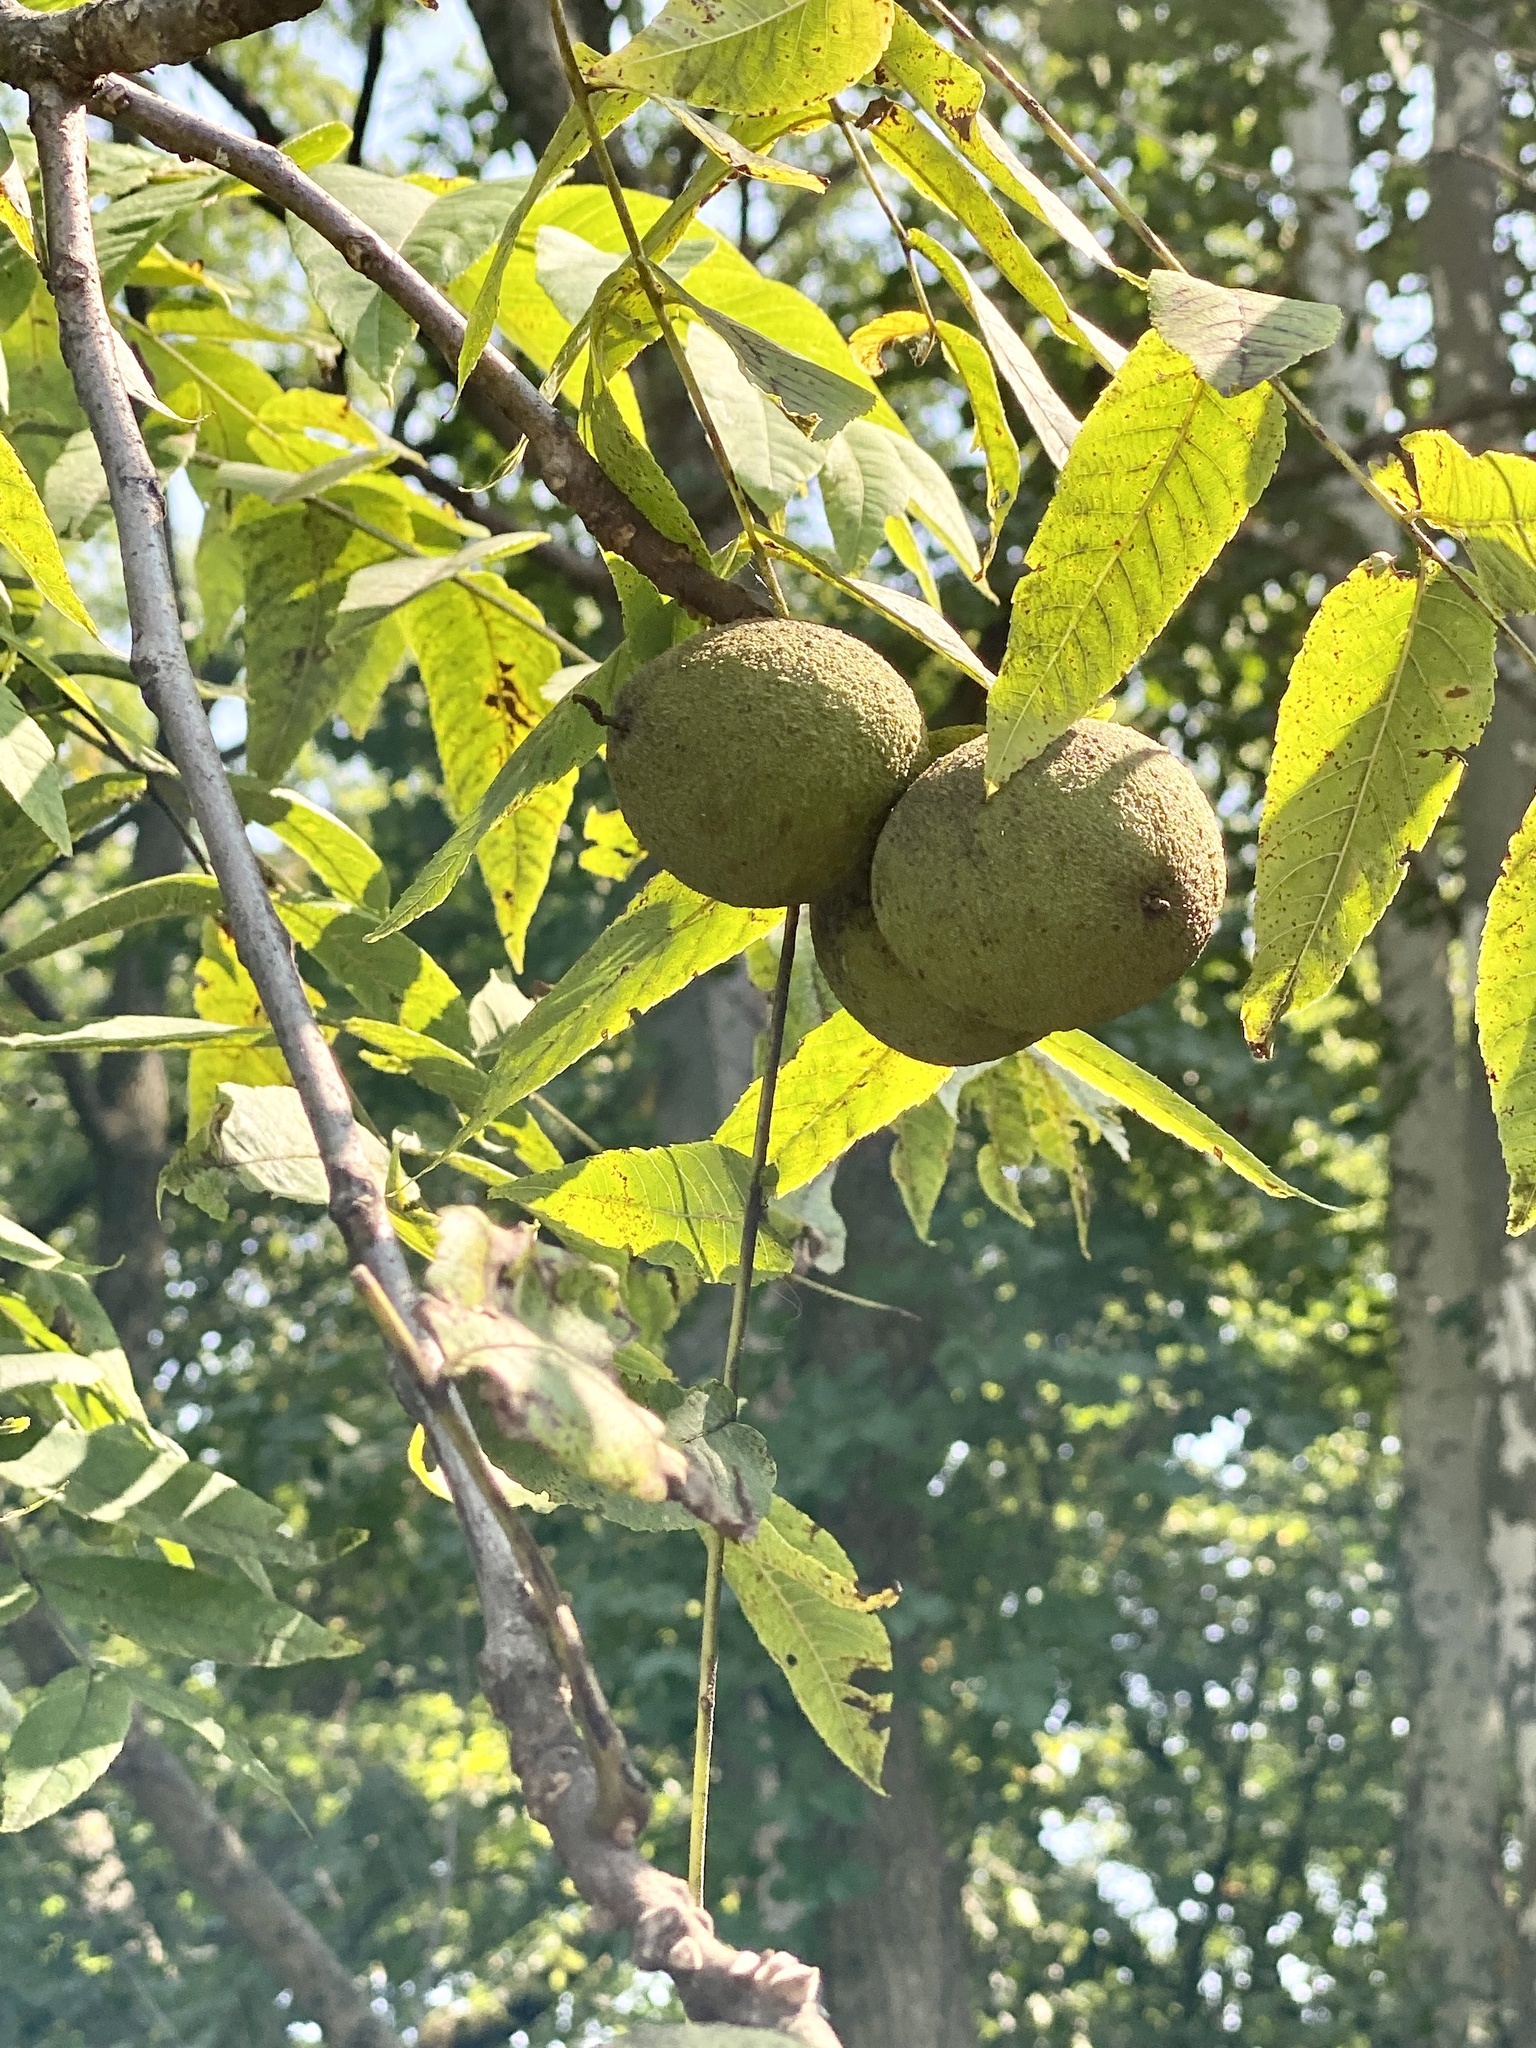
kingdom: Plantae
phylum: Tracheophyta
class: Magnoliopsida
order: Fagales
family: Juglandaceae
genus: Juglans
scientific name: Juglans nigra
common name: Black walnut
